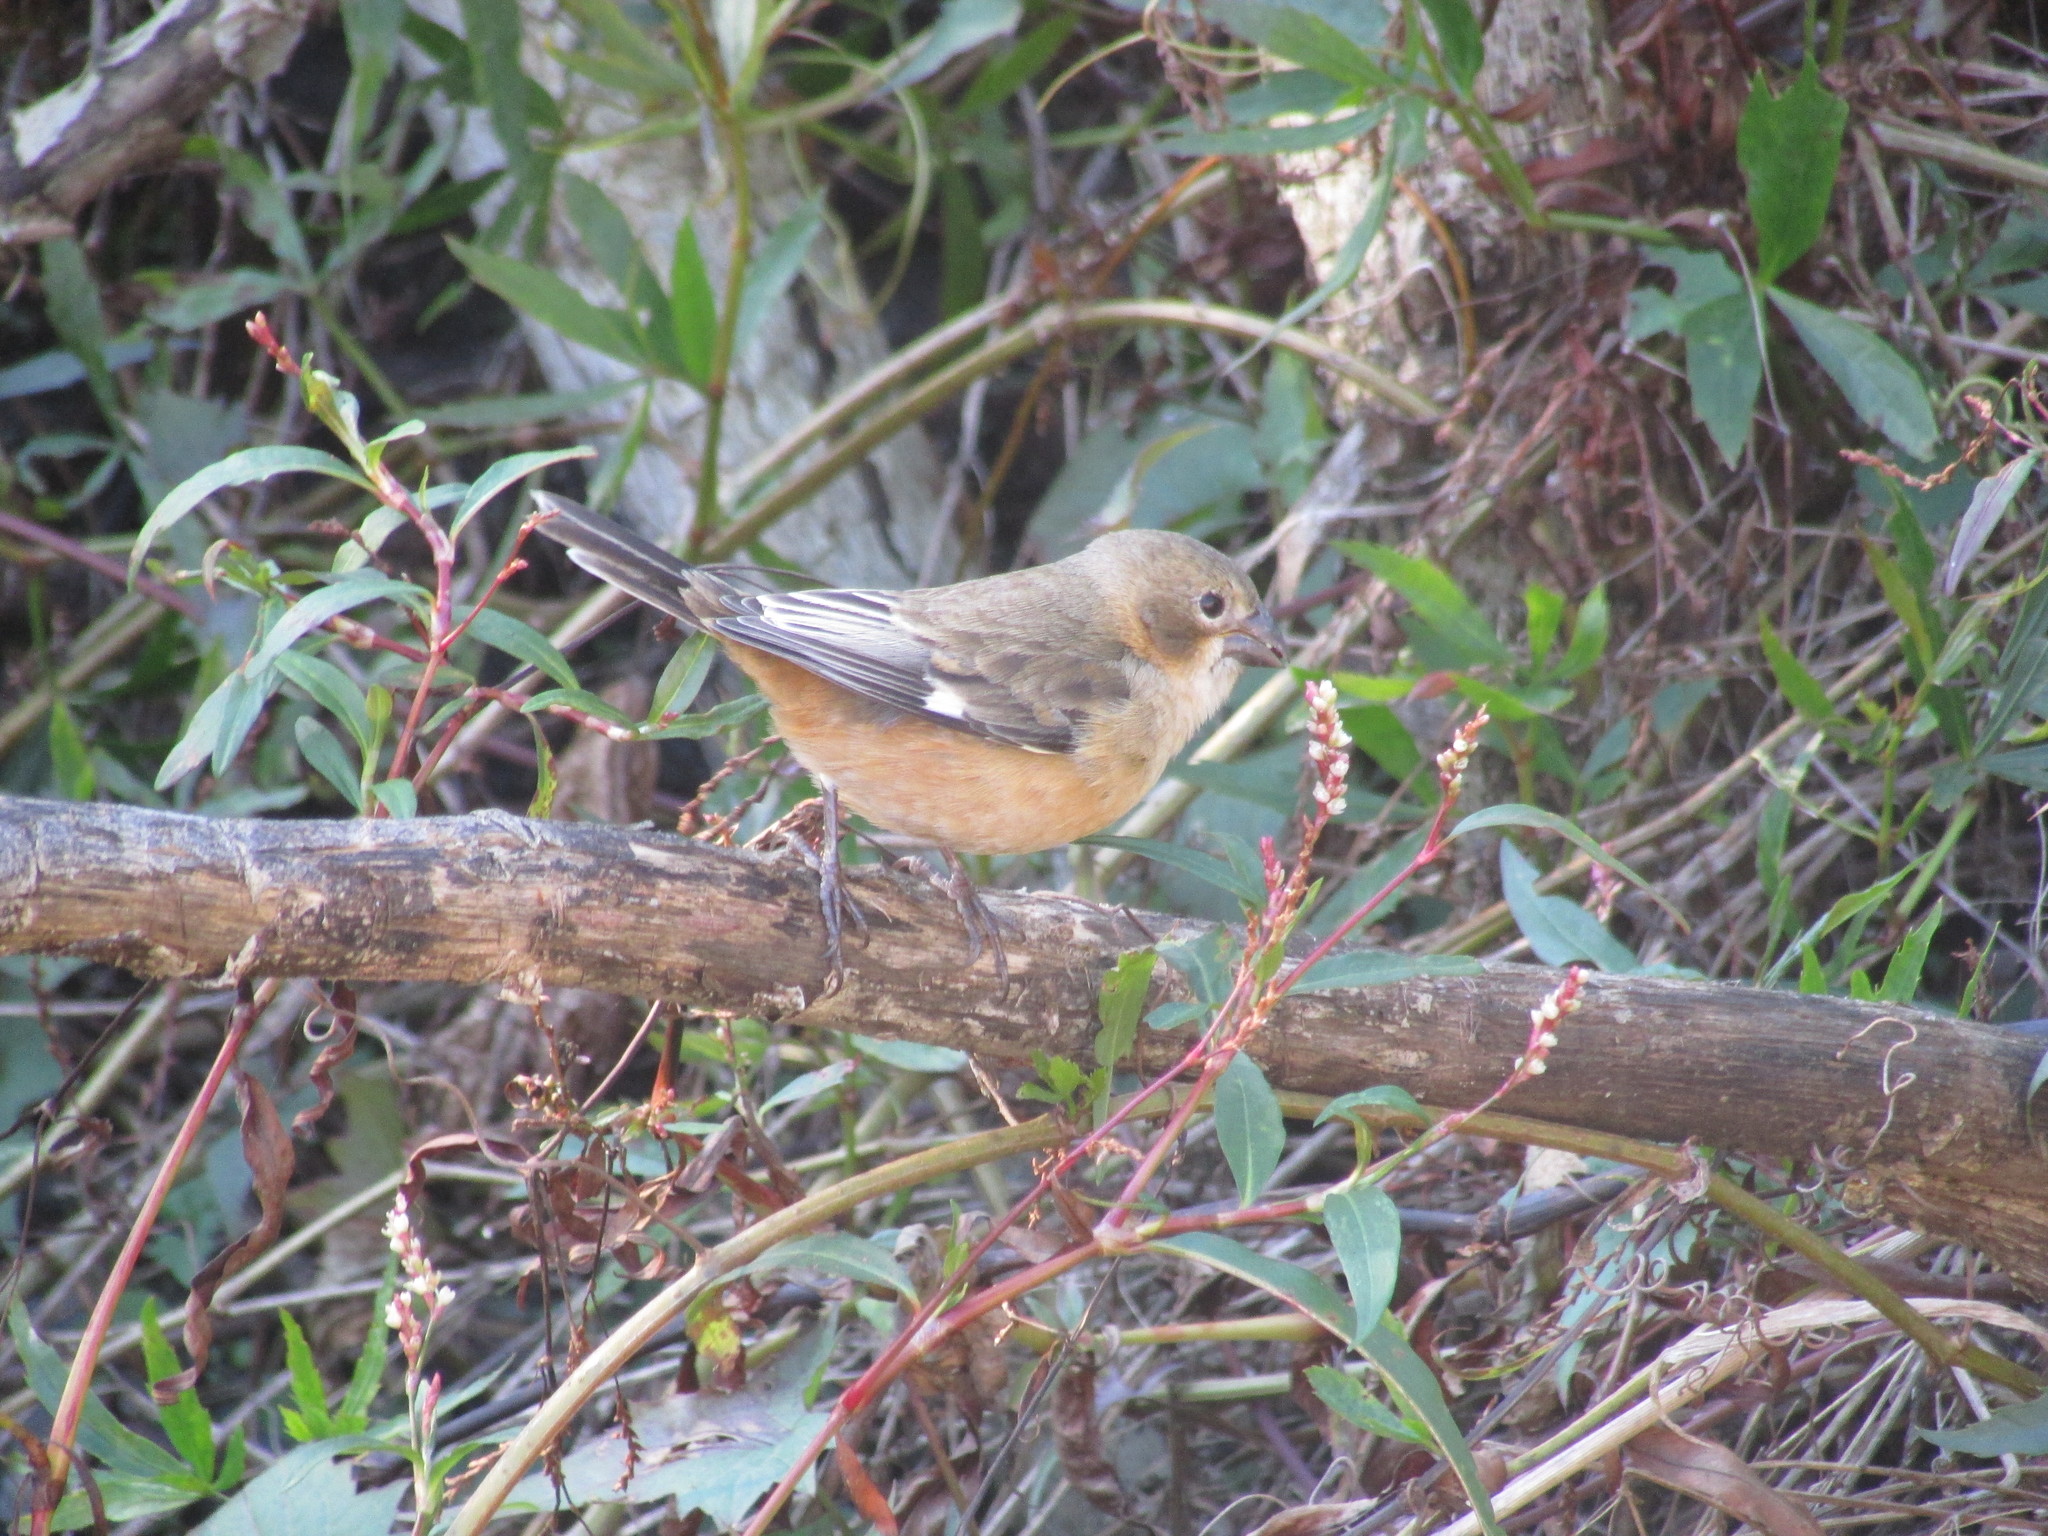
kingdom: Animalia
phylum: Chordata
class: Aves
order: Passeriformes
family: Thraupidae
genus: Sporophila
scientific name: Sporophila collaris
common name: Rusty-collared seedeater
